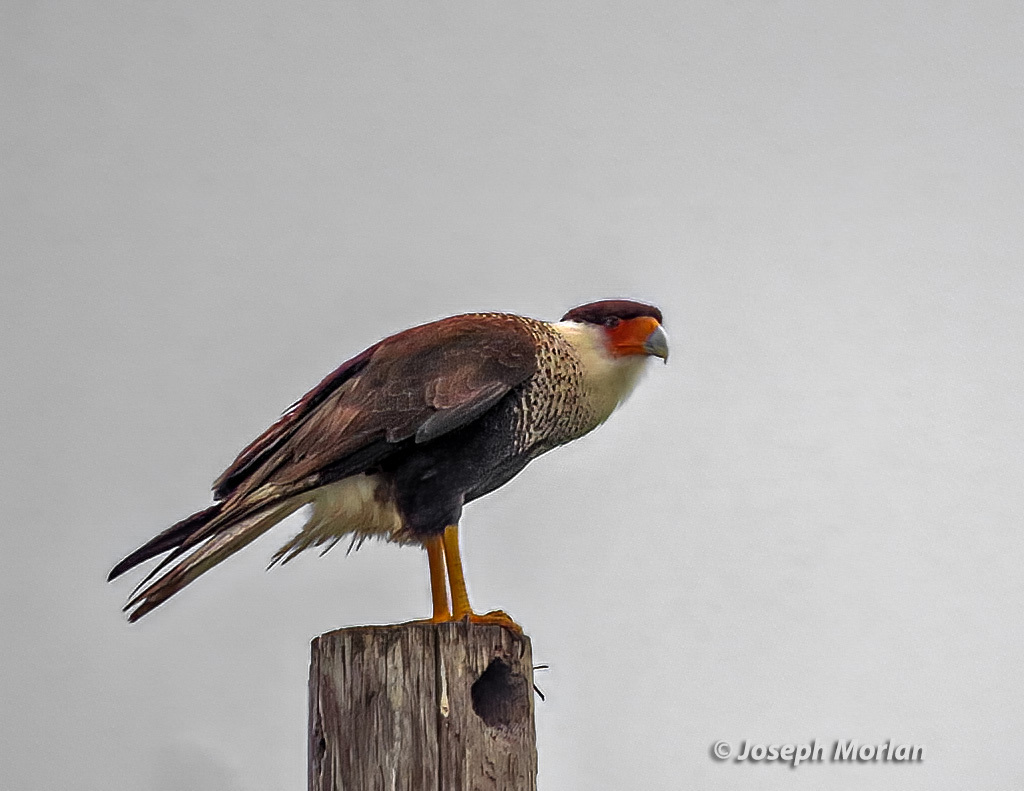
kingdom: Animalia
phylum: Chordata
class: Aves
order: Falconiformes
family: Falconidae
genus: Caracara
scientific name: Caracara plancus
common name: Southern caracara
